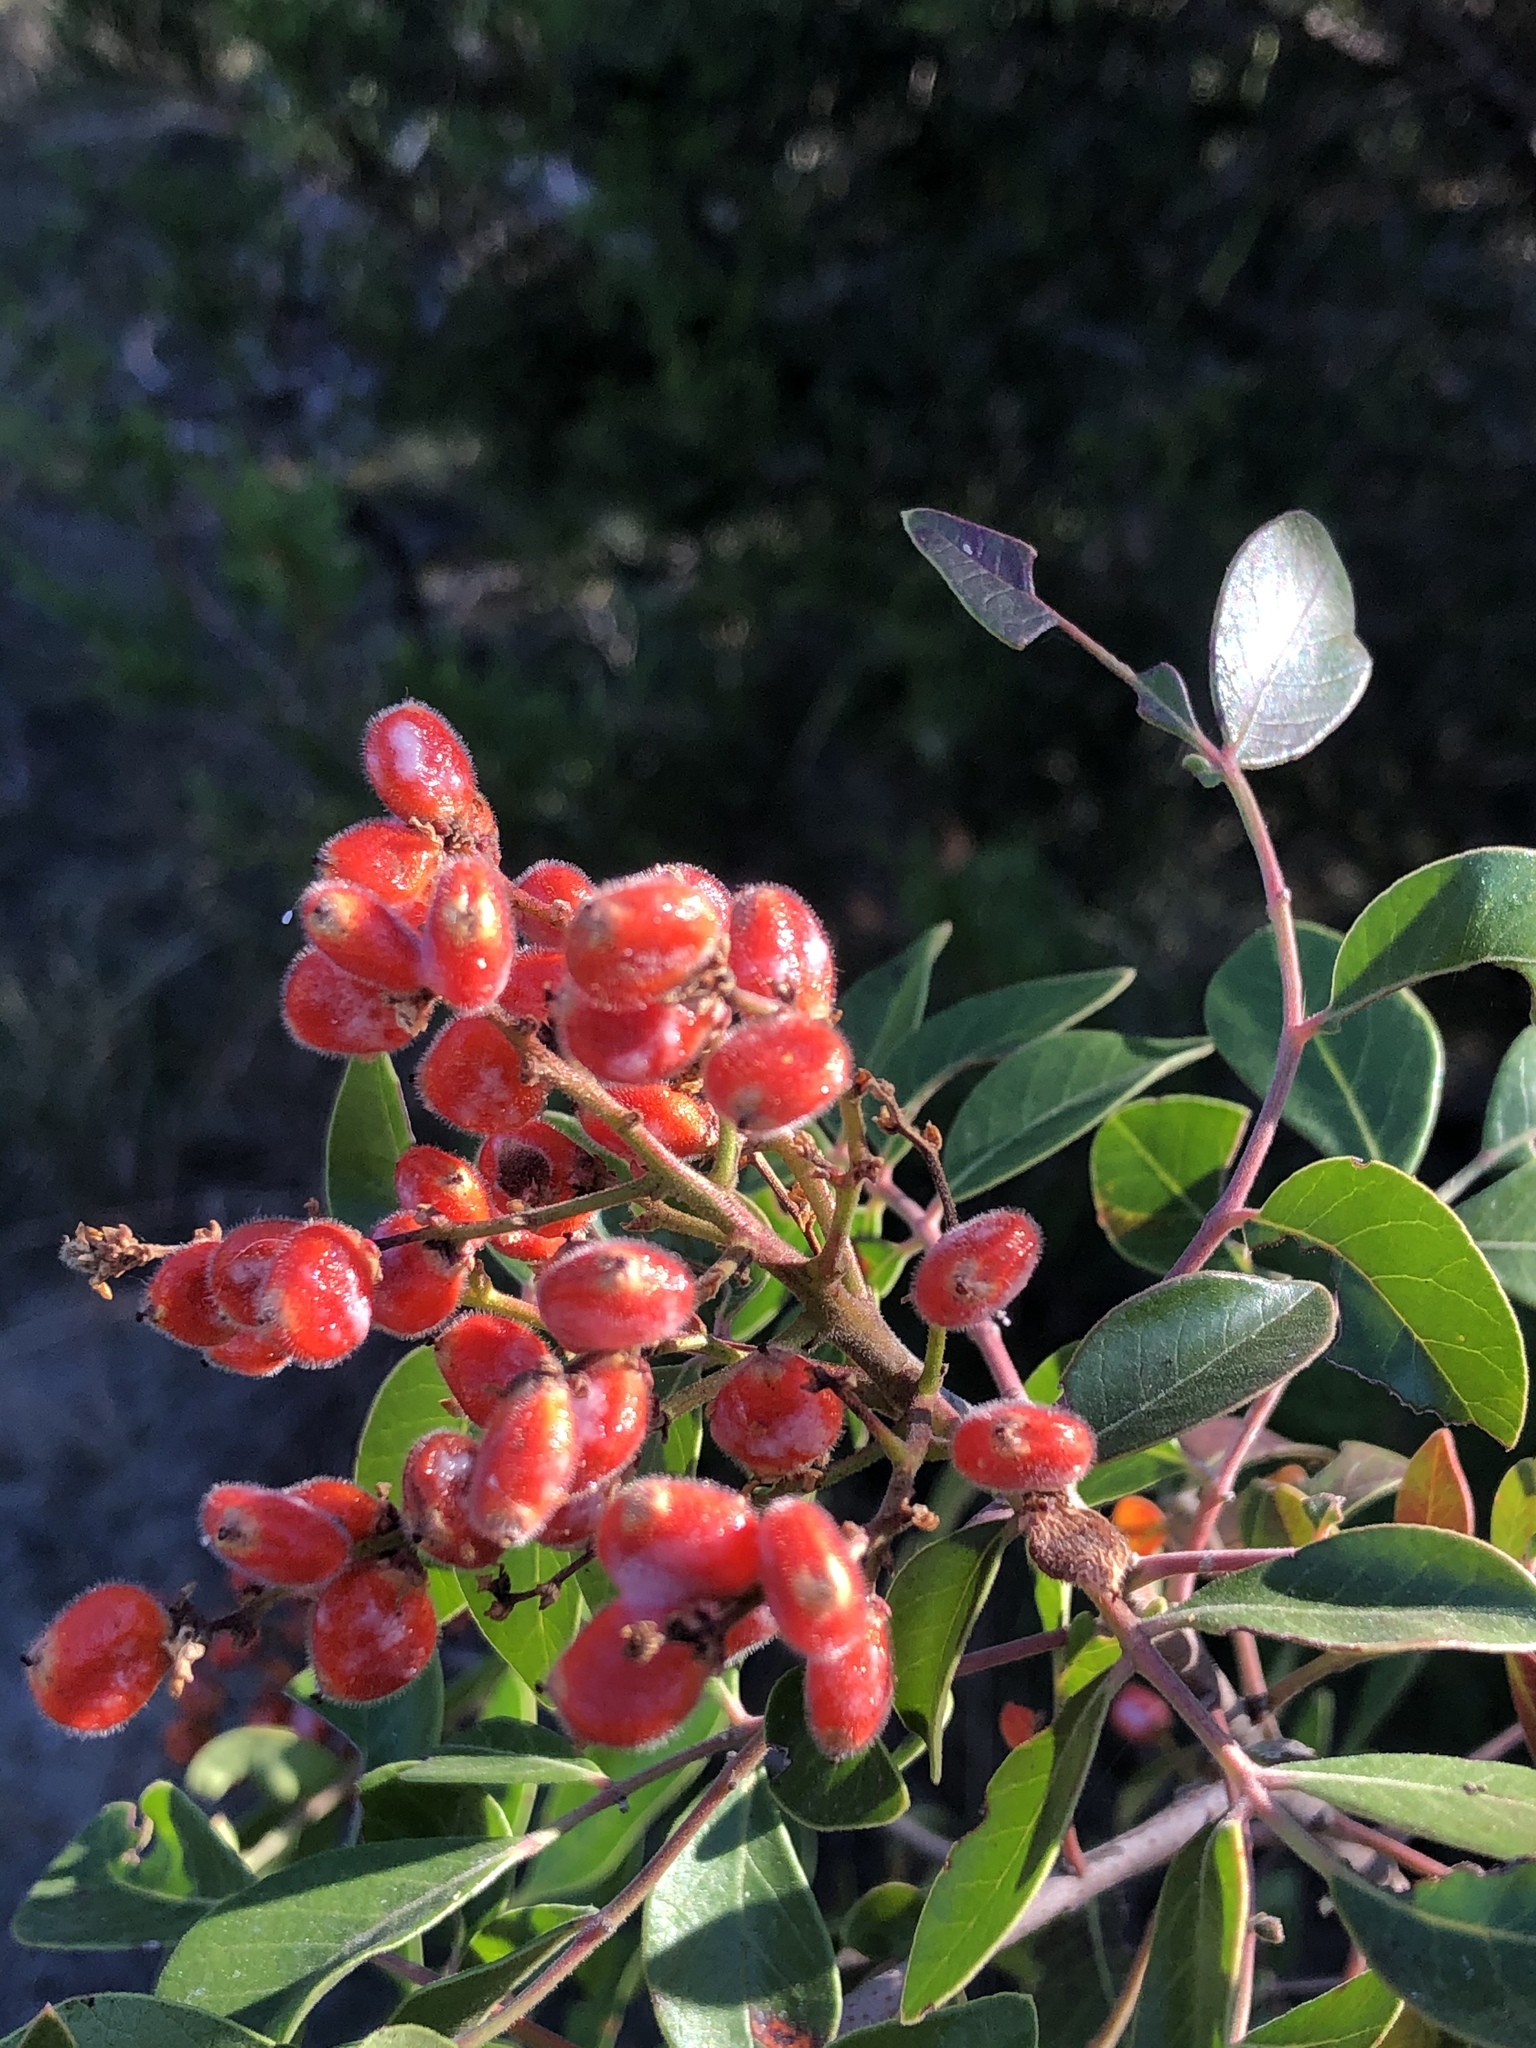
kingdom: Plantae
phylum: Tracheophyta
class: Magnoliopsida
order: Sapindales
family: Anacardiaceae
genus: Rhus
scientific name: Rhus virens
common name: Evergreen sumac
